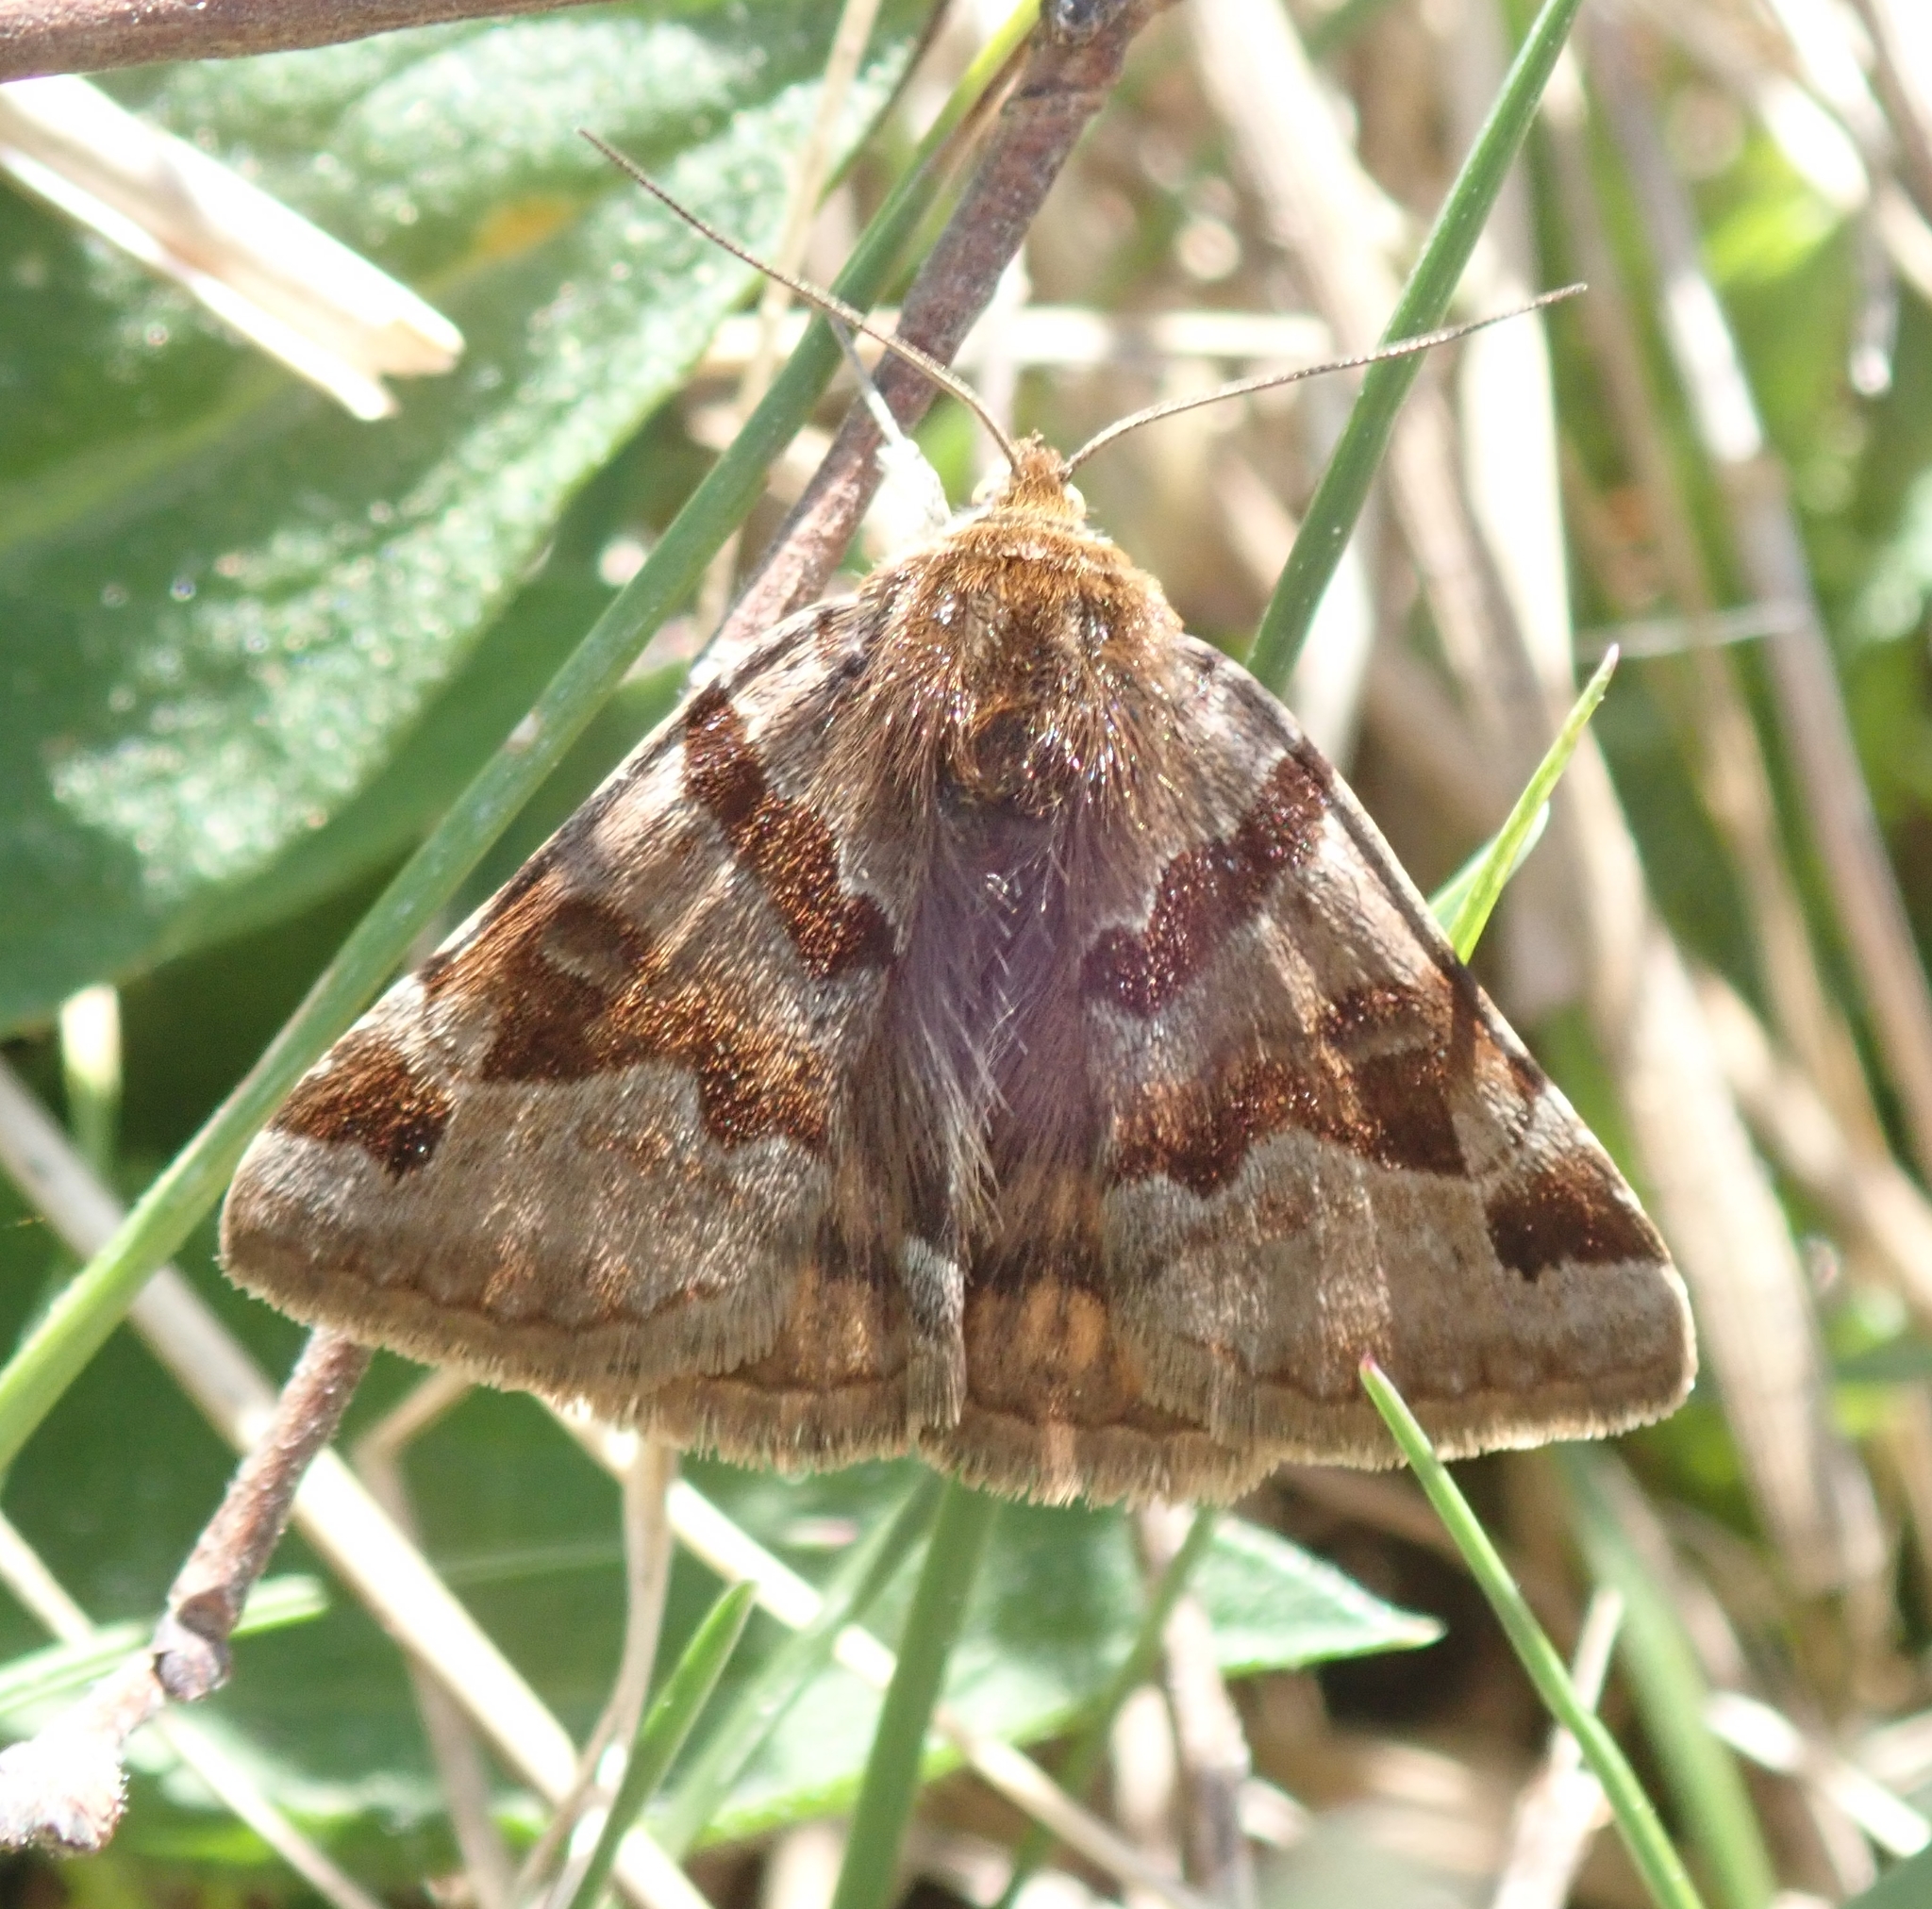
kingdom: Animalia
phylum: Arthropoda
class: Insecta
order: Lepidoptera
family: Erebidae
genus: Euclidia
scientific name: Euclidia glyphica
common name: Burnet companion
